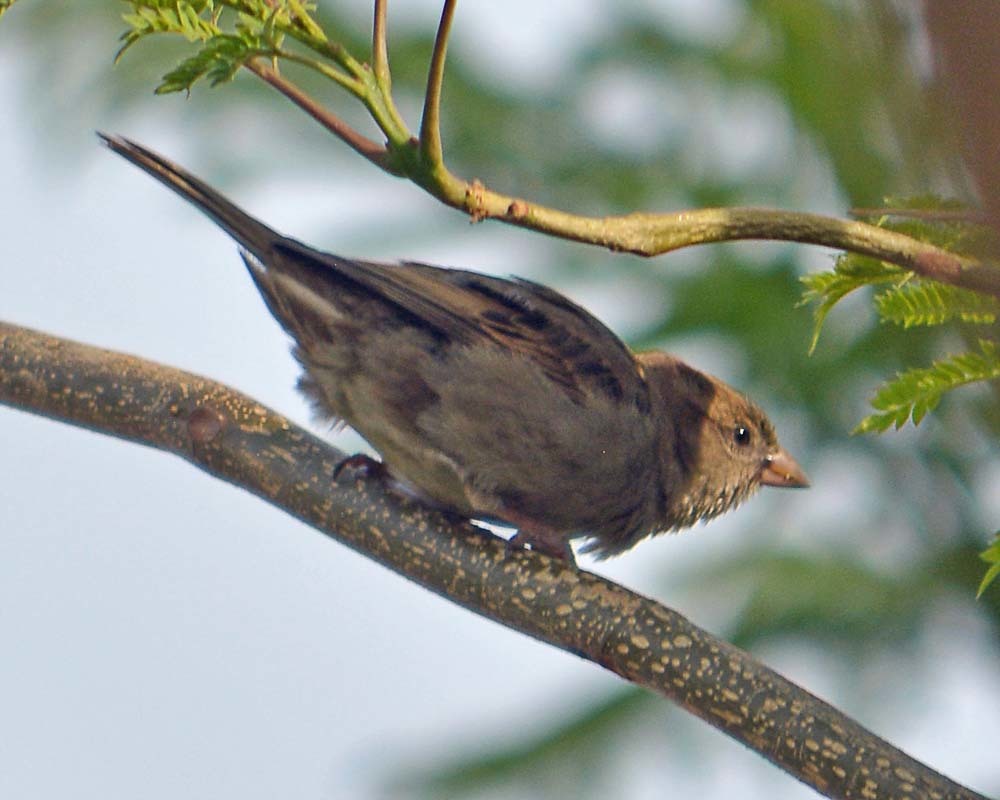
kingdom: Animalia
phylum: Chordata
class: Aves
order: Passeriformes
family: Passeridae
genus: Passer
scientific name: Passer domesticus
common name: House sparrow
